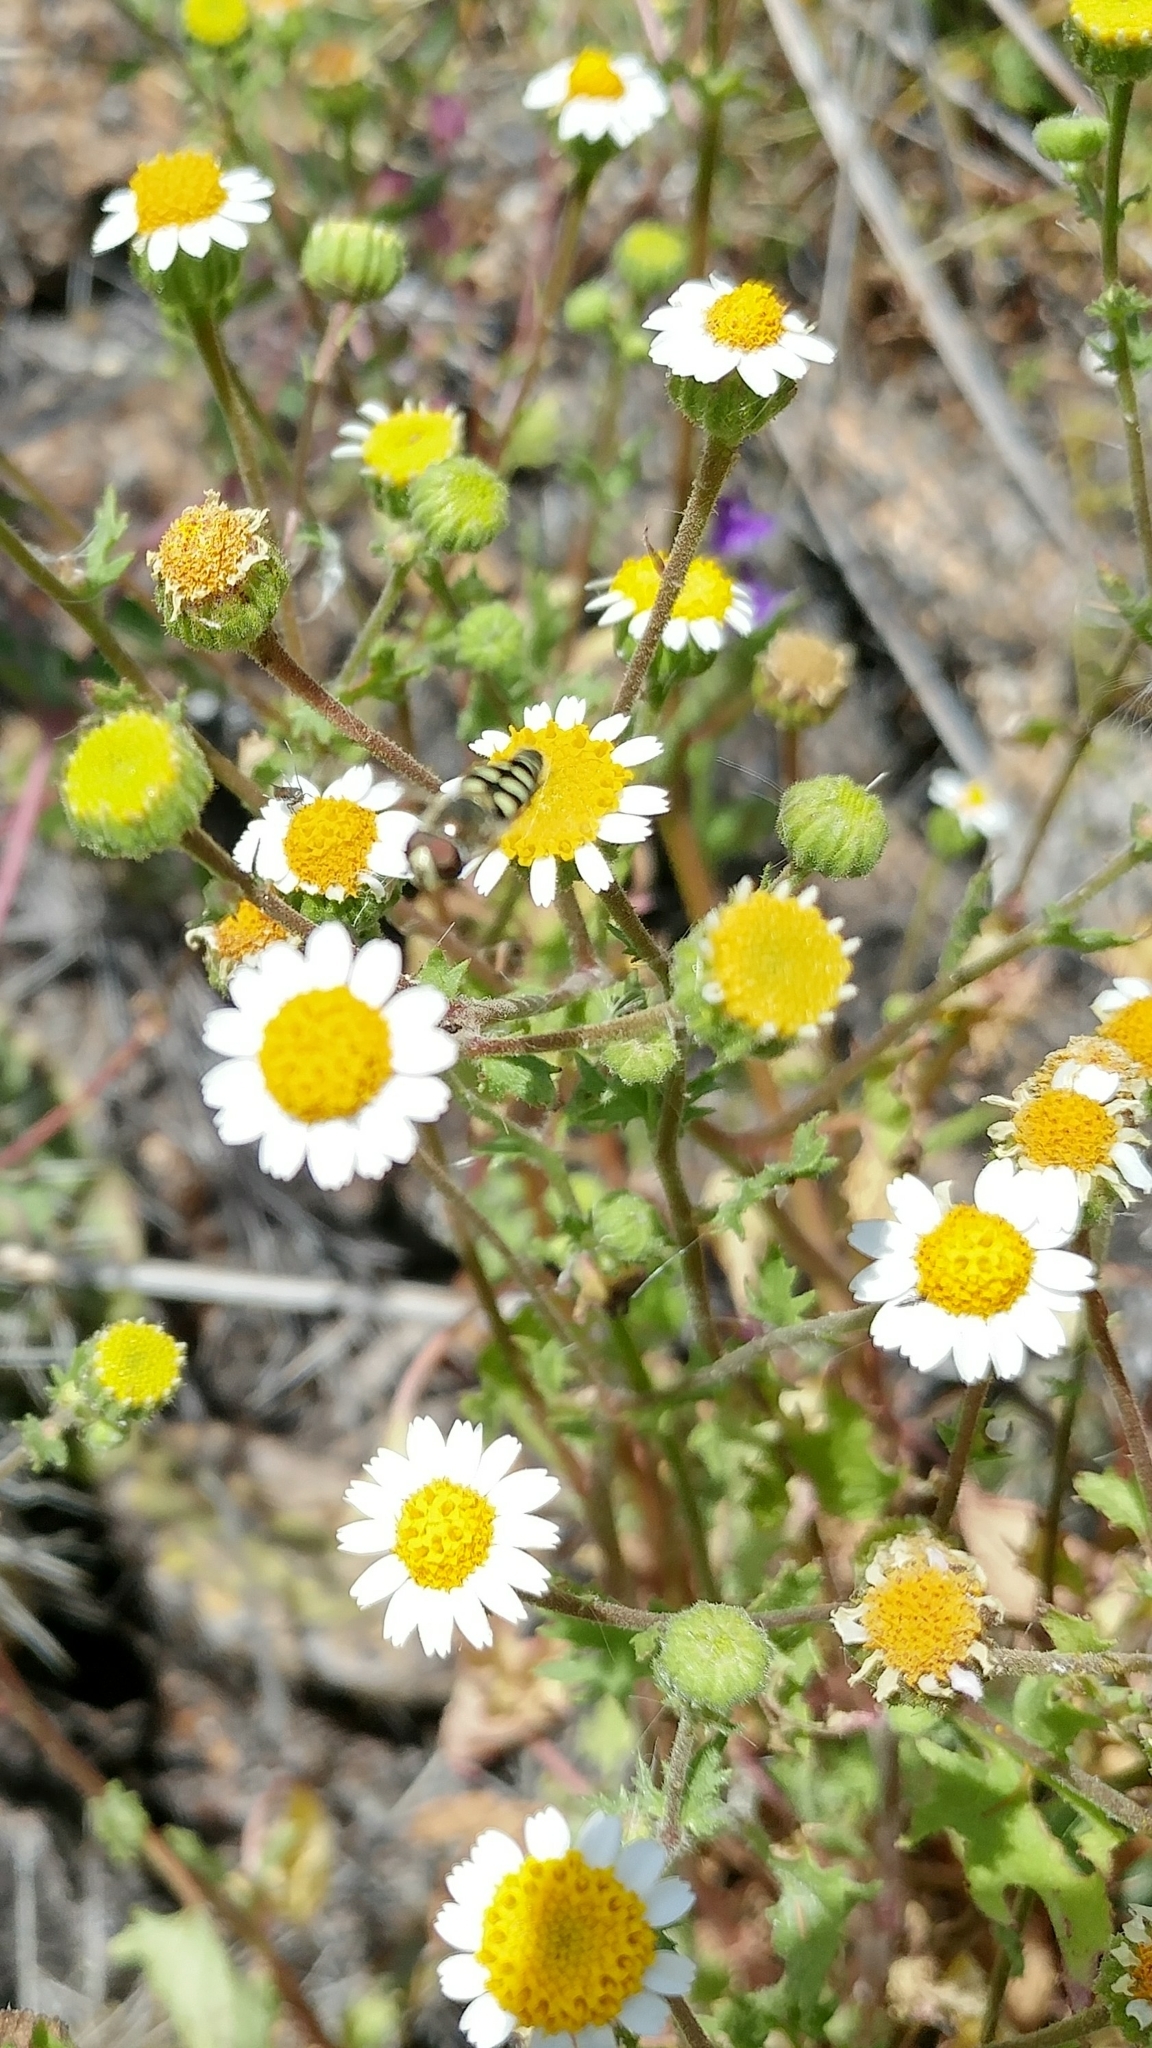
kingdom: Plantae
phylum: Tracheophyta
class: Magnoliopsida
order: Asterales
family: Asteraceae
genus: Laphamia
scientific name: Laphamia emoryi
